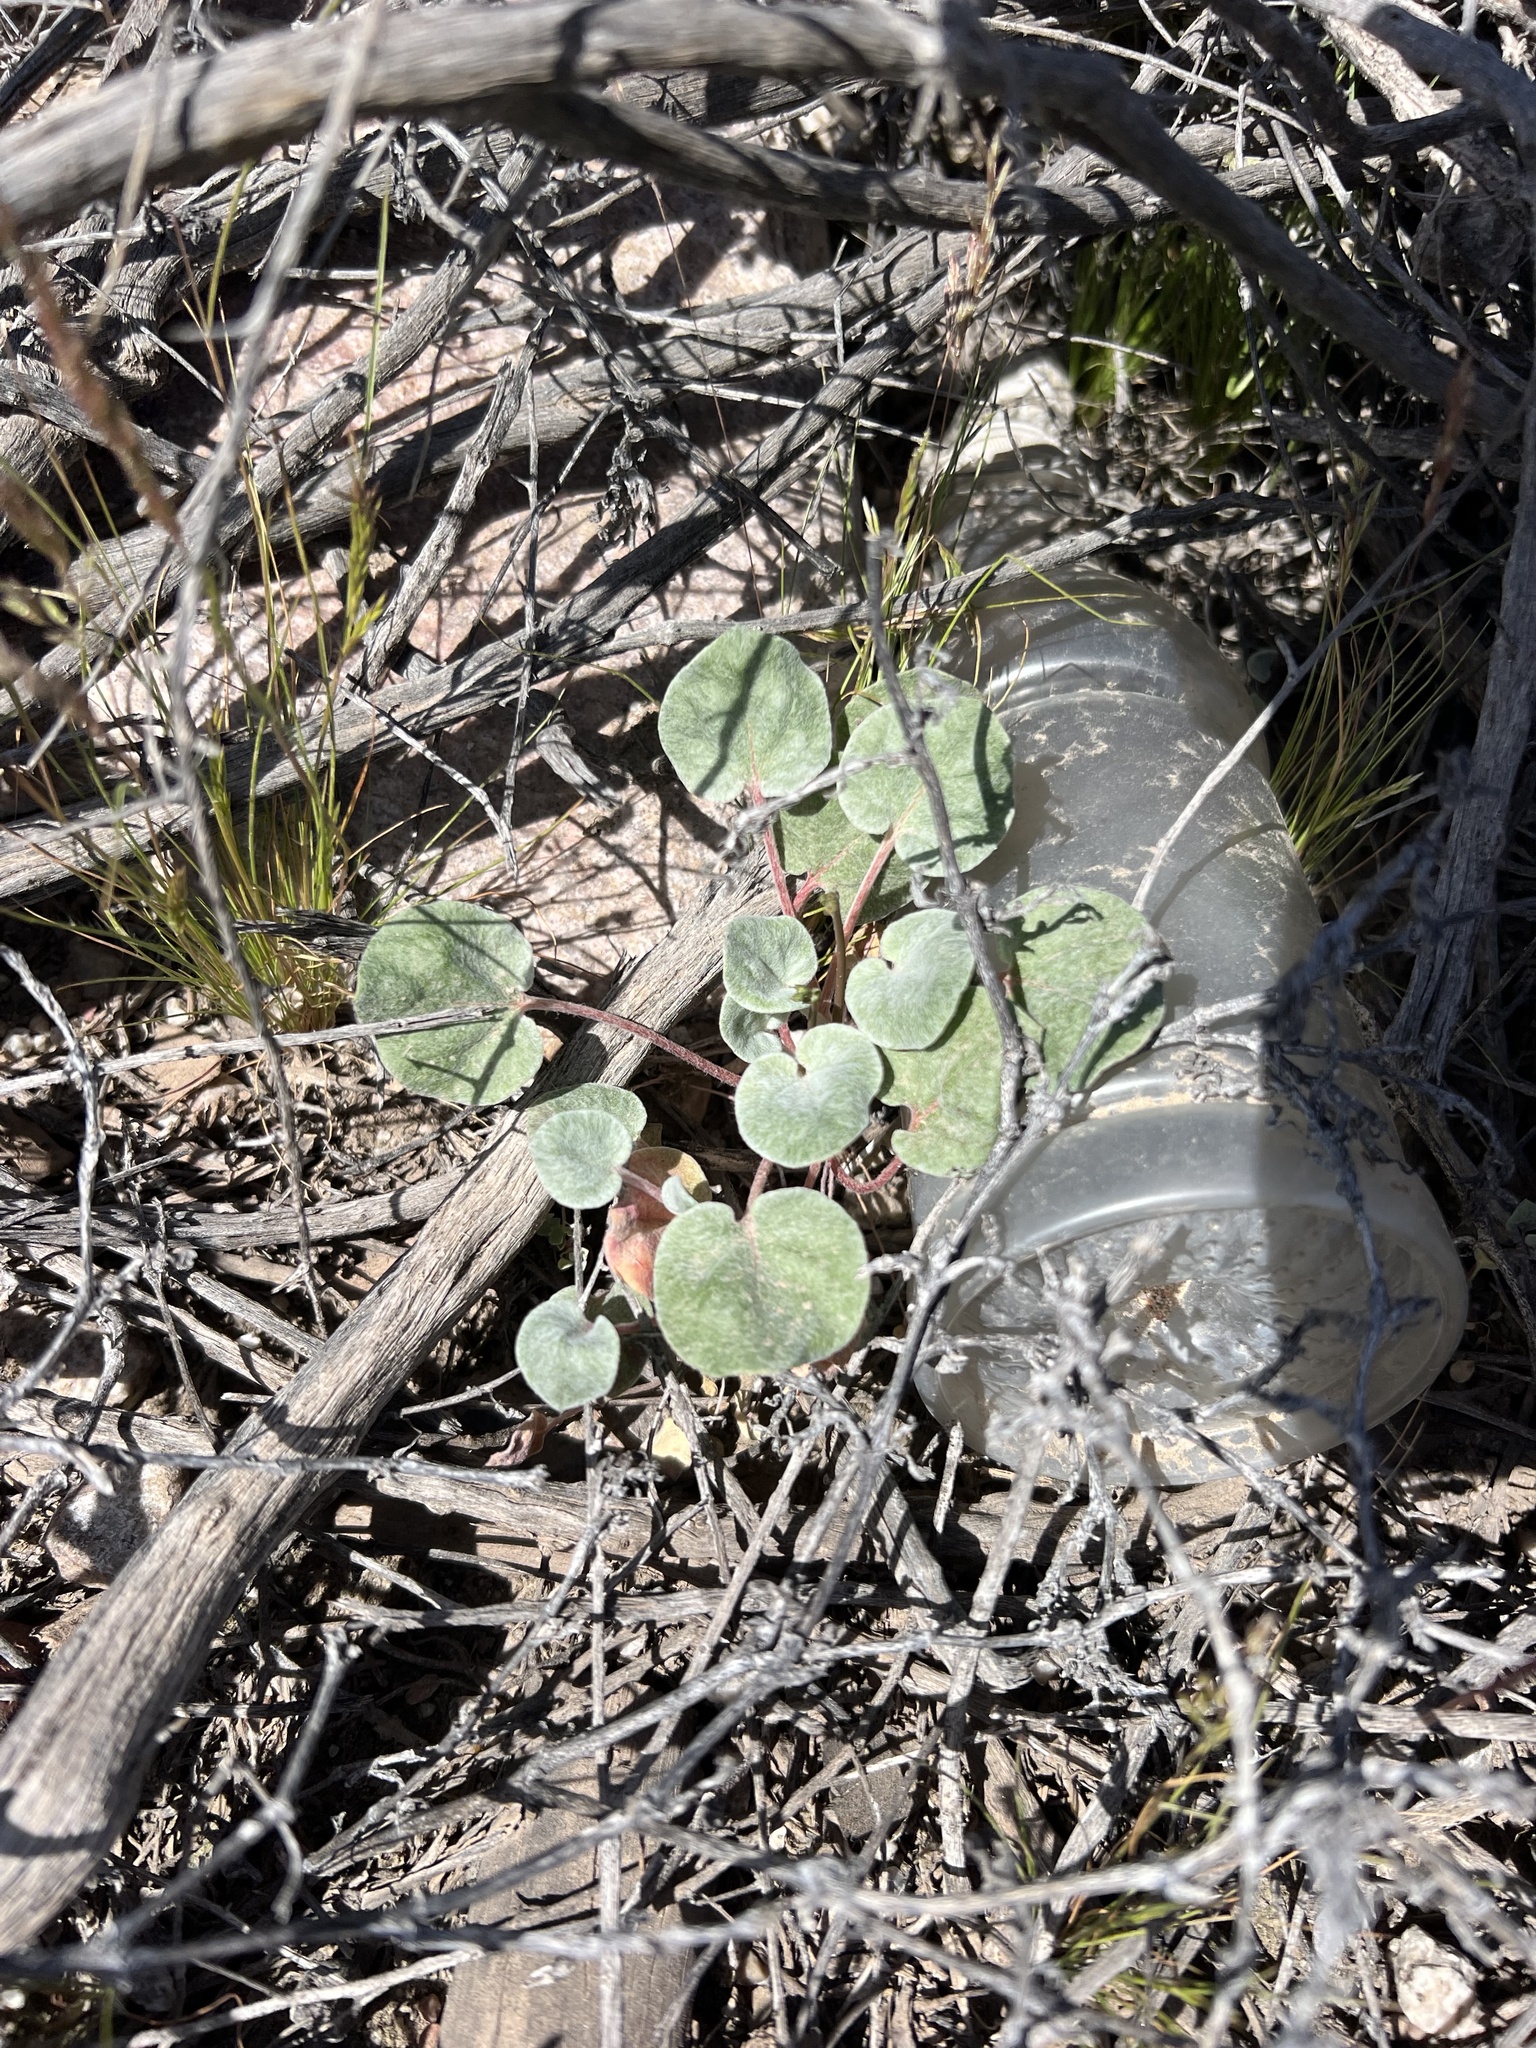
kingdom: Plantae
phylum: Tracheophyta
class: Magnoliopsida
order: Caryophyllales
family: Polygonaceae
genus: Eriogonum
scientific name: Eriogonum deflexum
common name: Skeleton-weed
